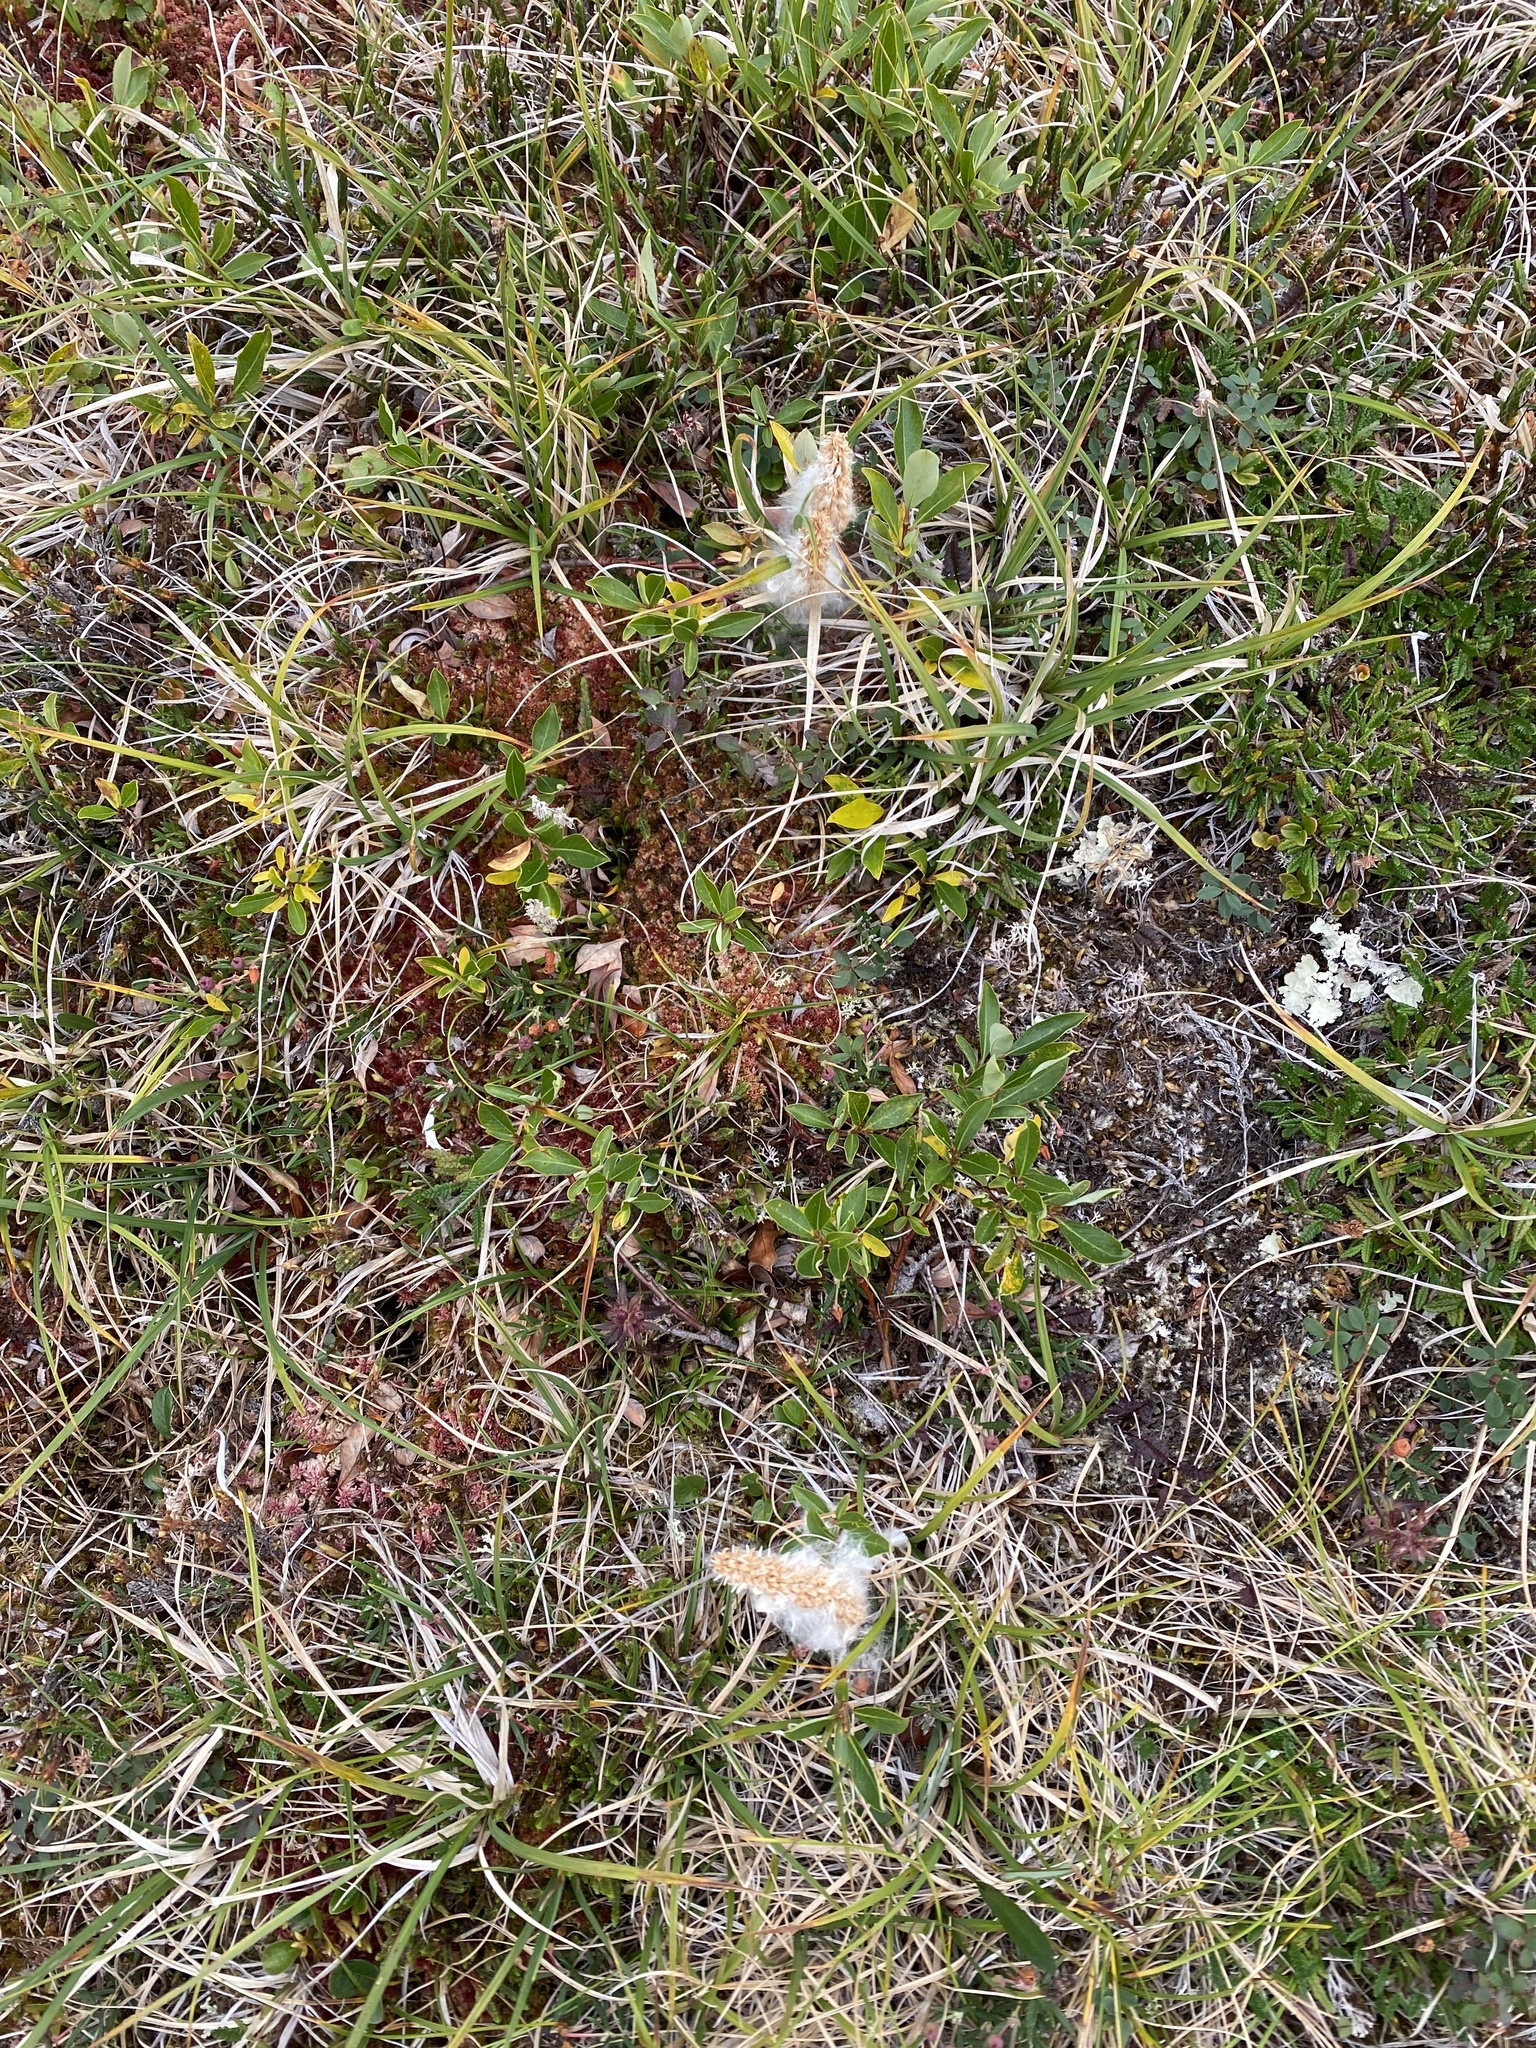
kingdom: Plantae
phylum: Tracheophyta
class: Magnoliopsida
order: Malpighiales
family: Salicaceae
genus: Salix
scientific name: Salix pulchra
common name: Diamond-leaved willow
